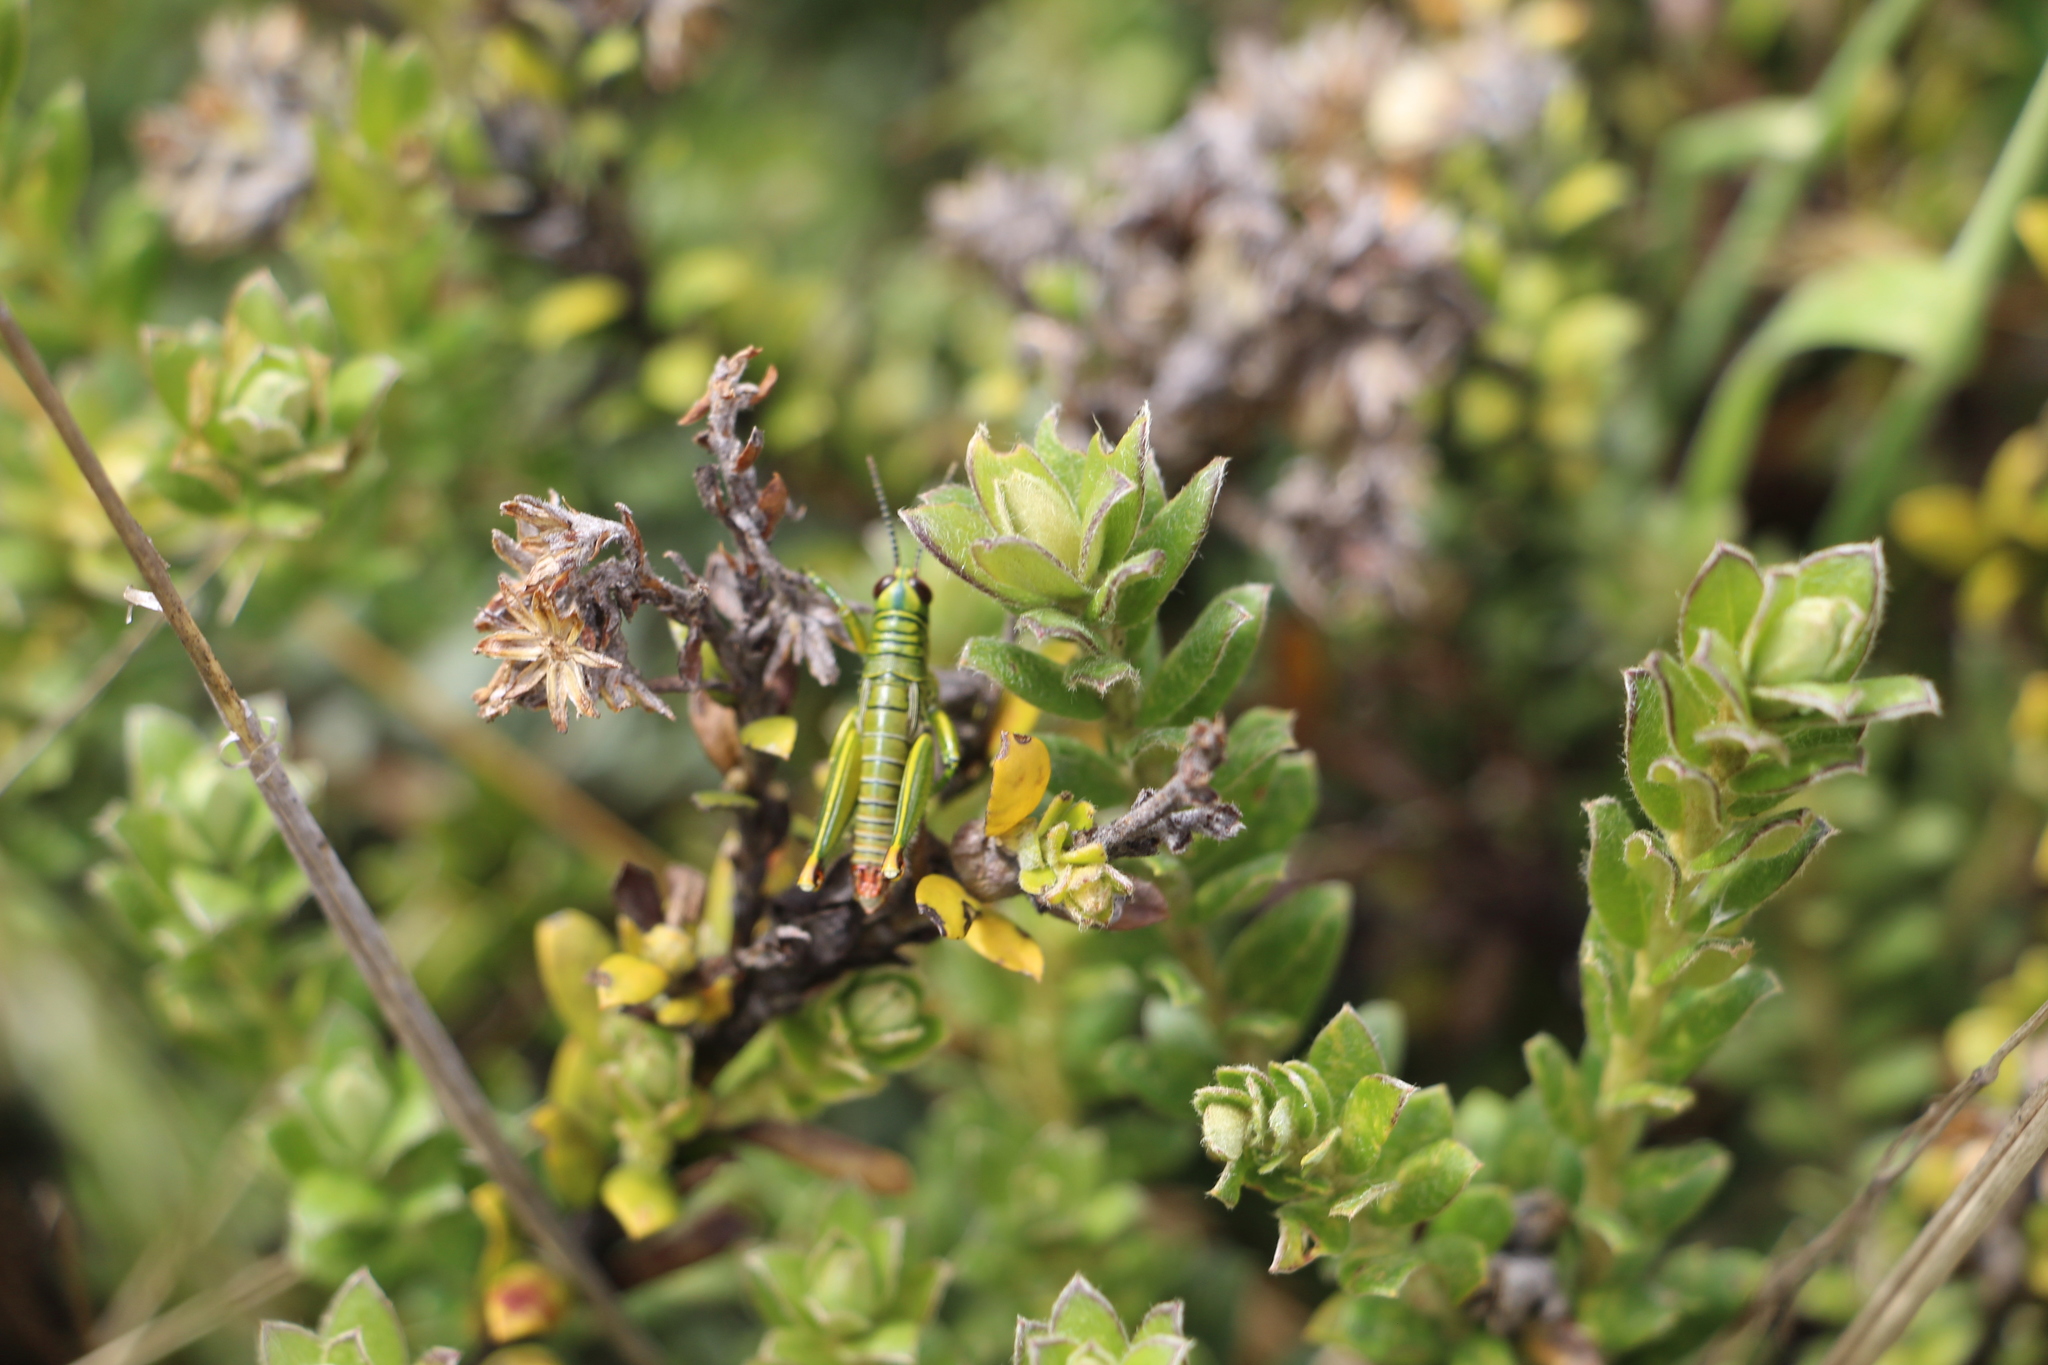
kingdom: Animalia
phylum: Arthropoda
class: Insecta
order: Orthoptera
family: Acrididae
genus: Agesander
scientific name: Agesander ruficornis
